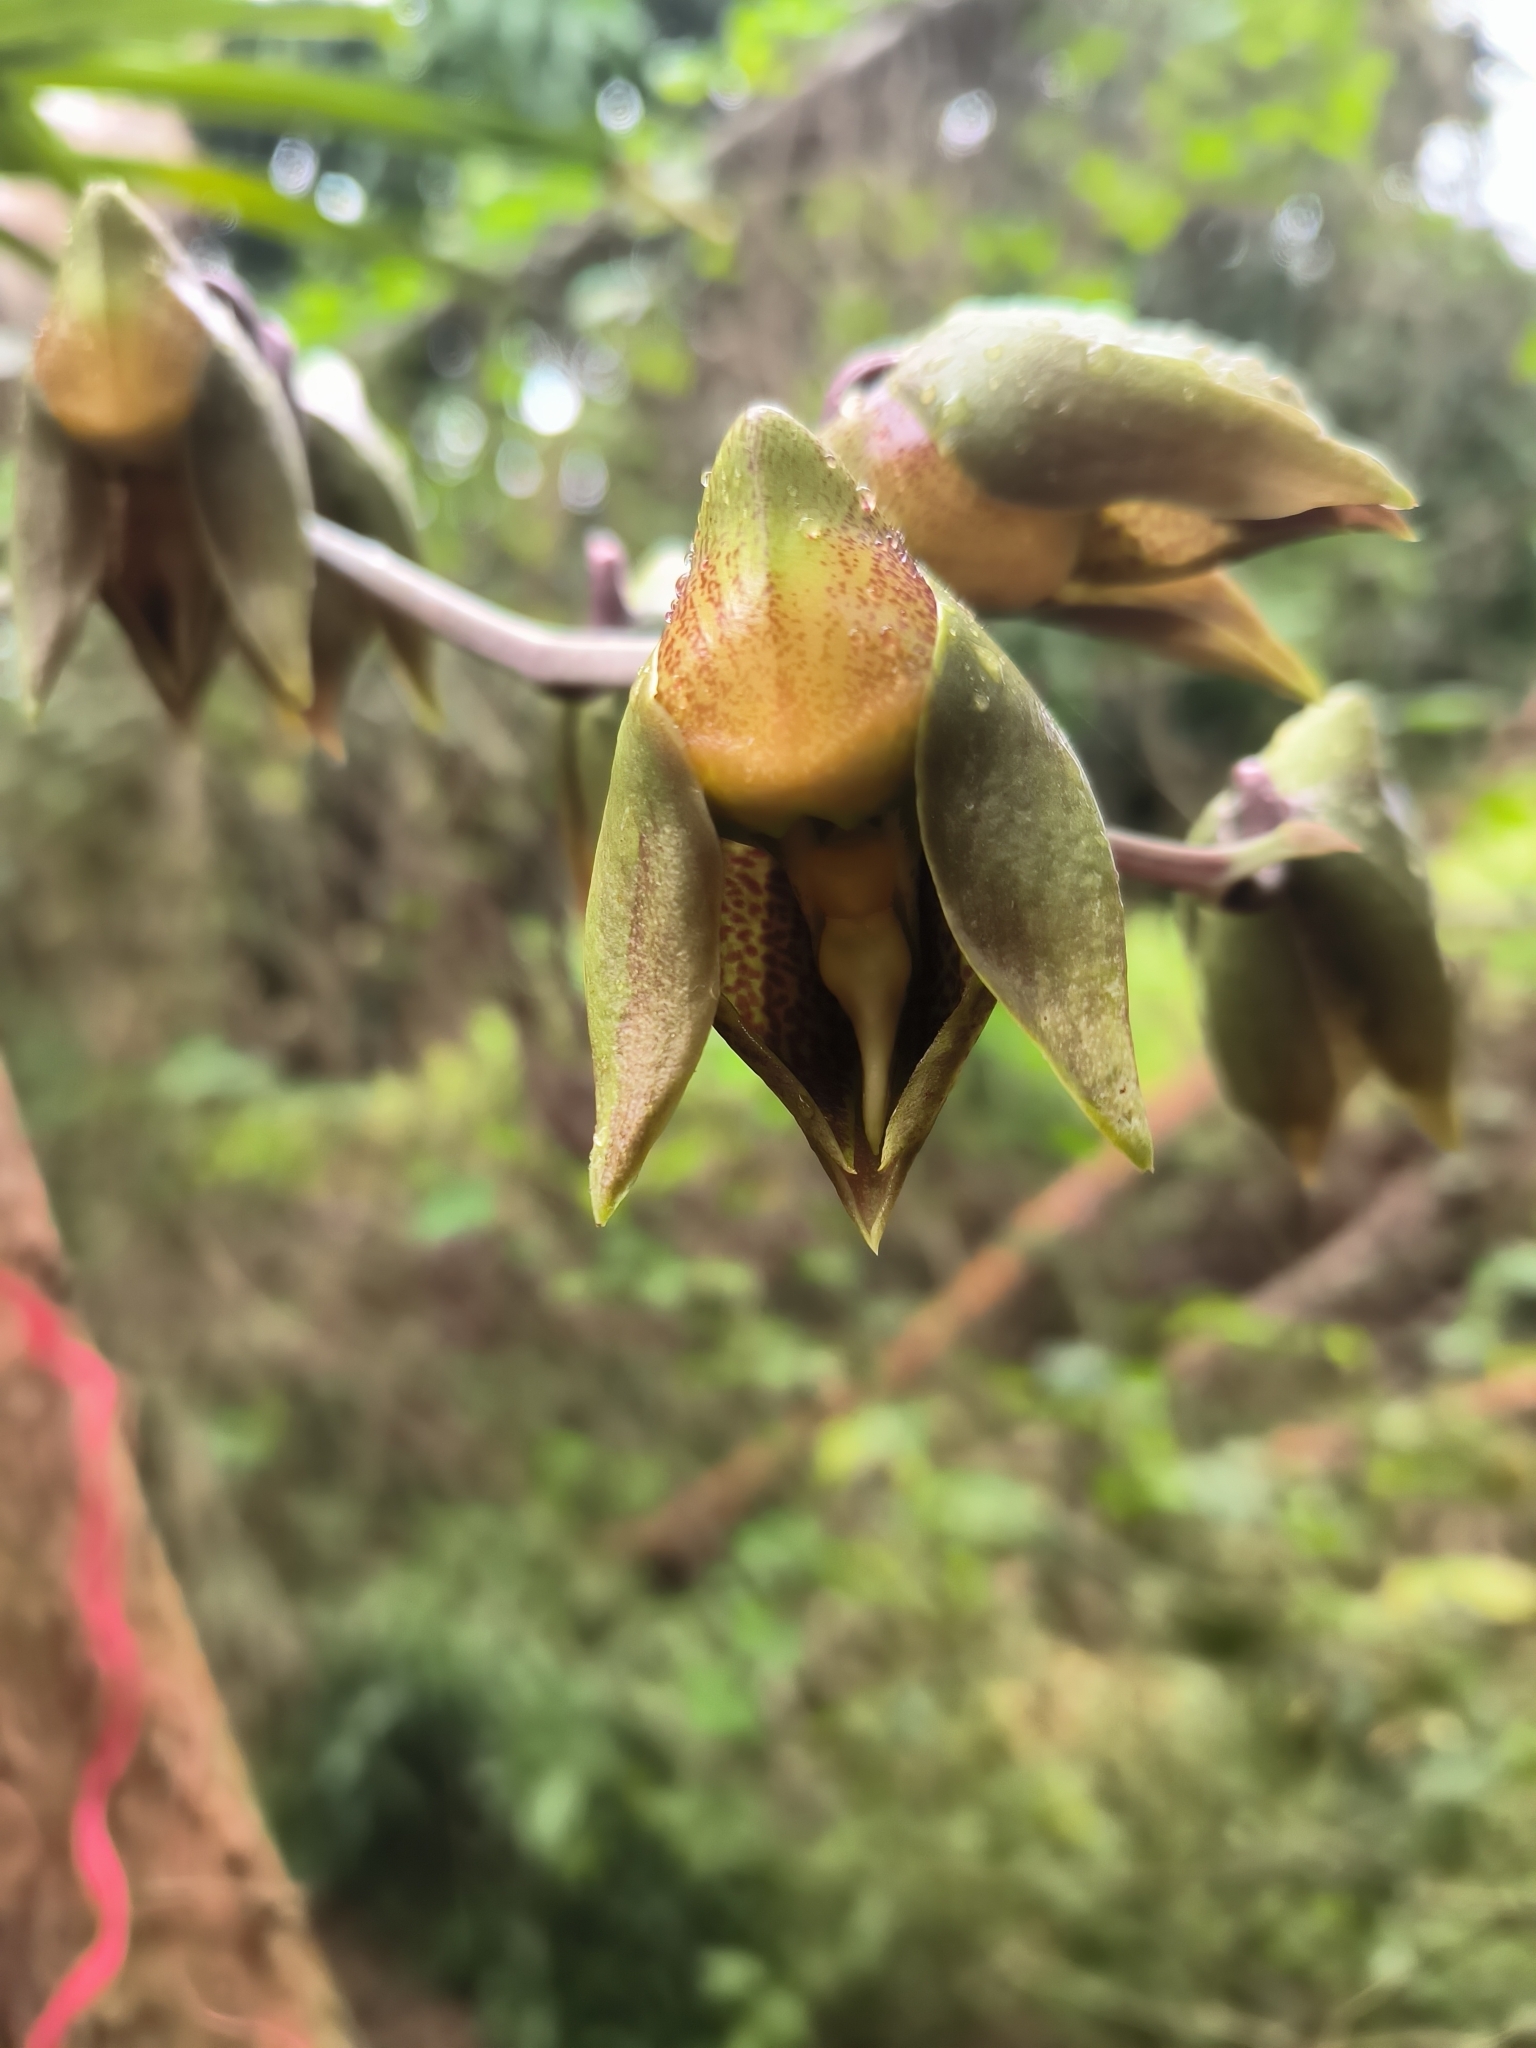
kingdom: Plantae
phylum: Tracheophyta
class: Liliopsida
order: Asparagales
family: Orchidaceae
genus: Catasetum
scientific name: Catasetum maculatum
